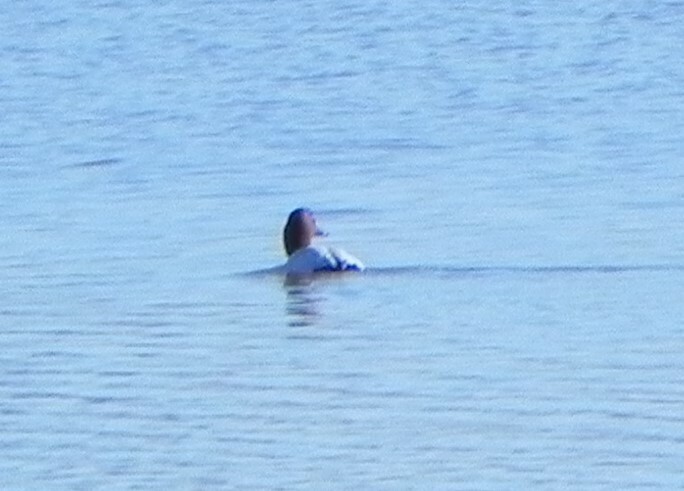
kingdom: Animalia
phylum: Chordata
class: Aves
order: Anseriformes
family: Anatidae
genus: Aythya
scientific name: Aythya valisineria
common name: Canvasback
